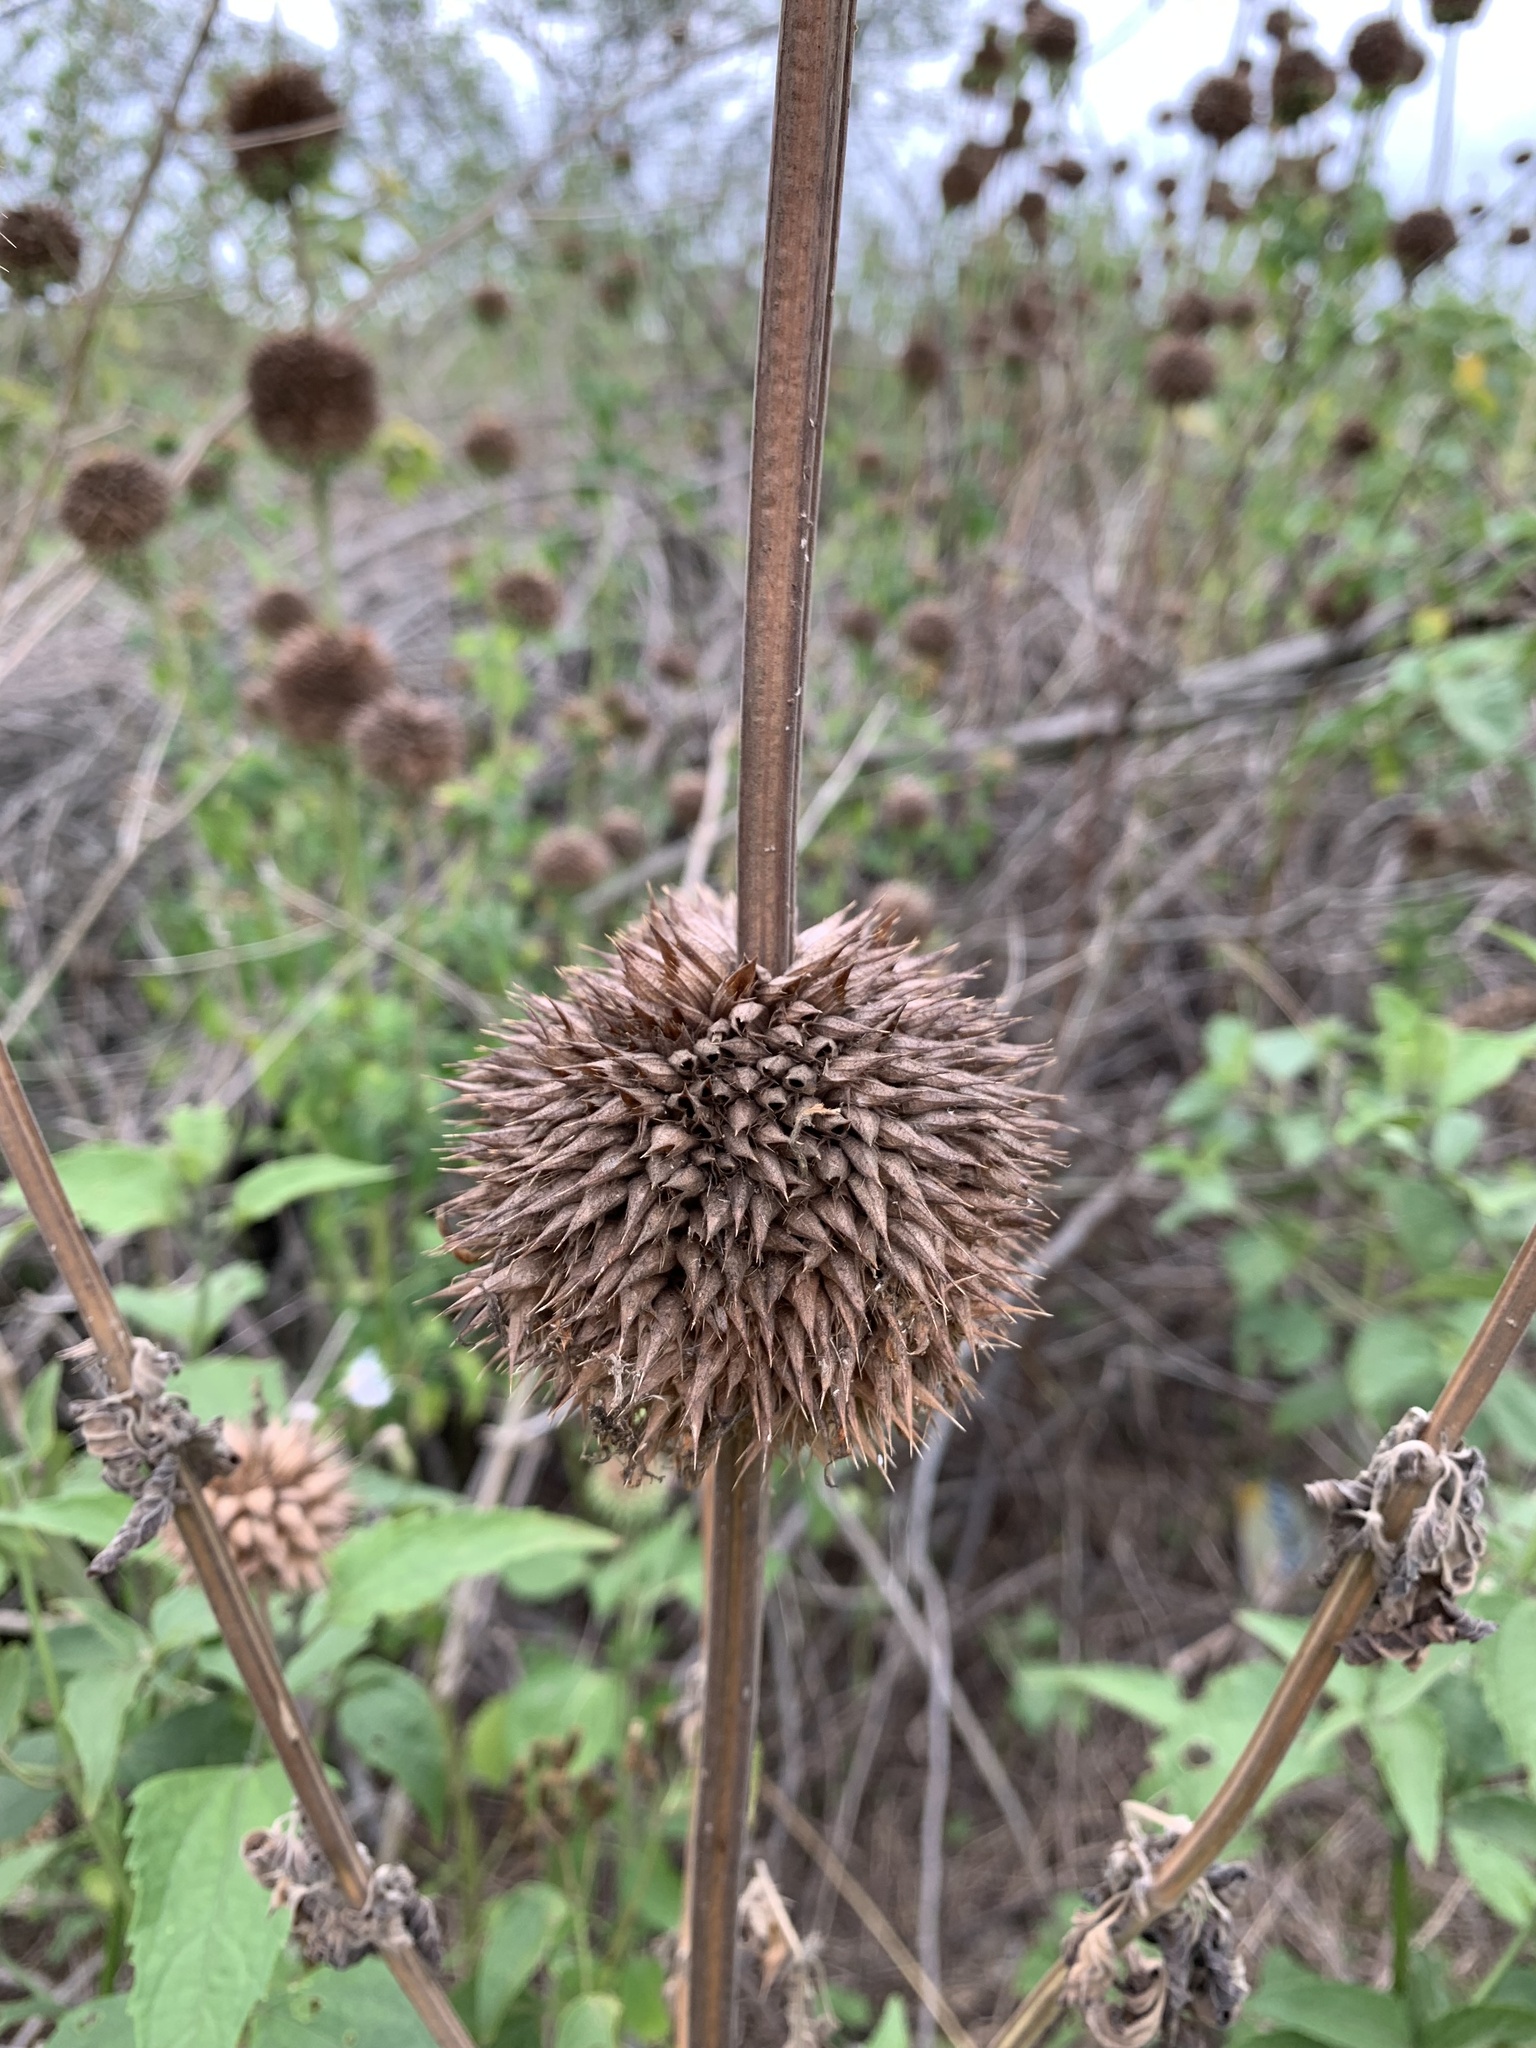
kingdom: Plantae
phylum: Tracheophyta
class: Magnoliopsida
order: Lamiales
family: Lamiaceae
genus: Leonotis
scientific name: Leonotis nepetifolia
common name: Christmas candlestick
